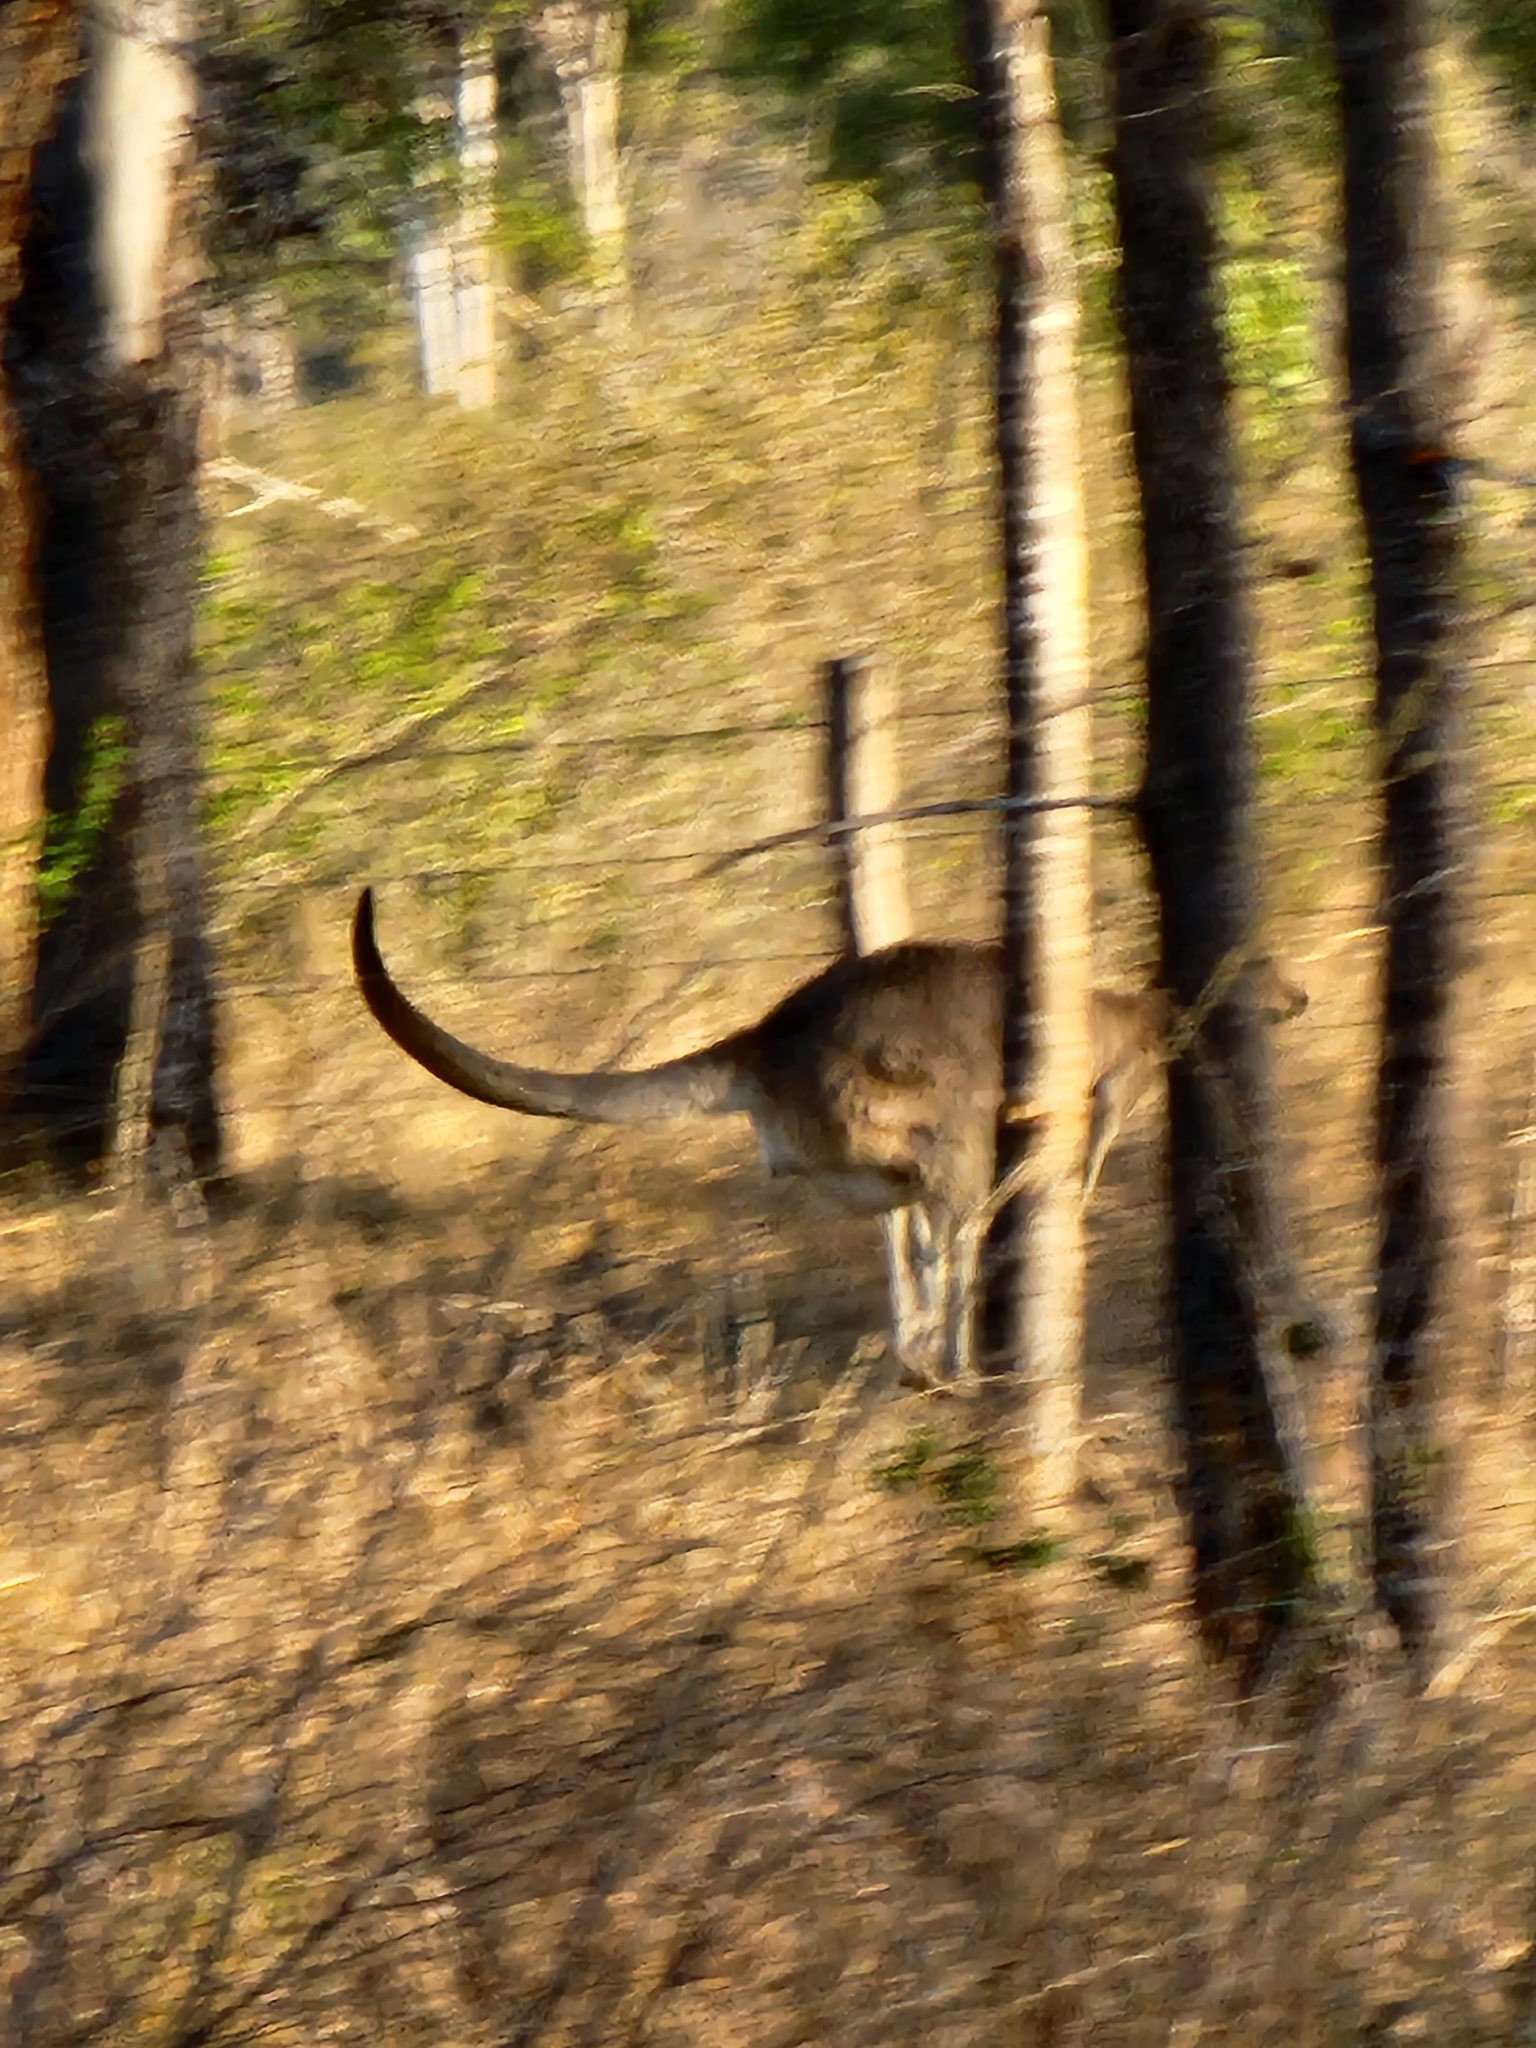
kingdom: Animalia
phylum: Chordata
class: Mammalia
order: Diprotodontia
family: Macropodidae
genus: Macropus
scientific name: Macropus giganteus
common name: Eastern grey kangaroo
